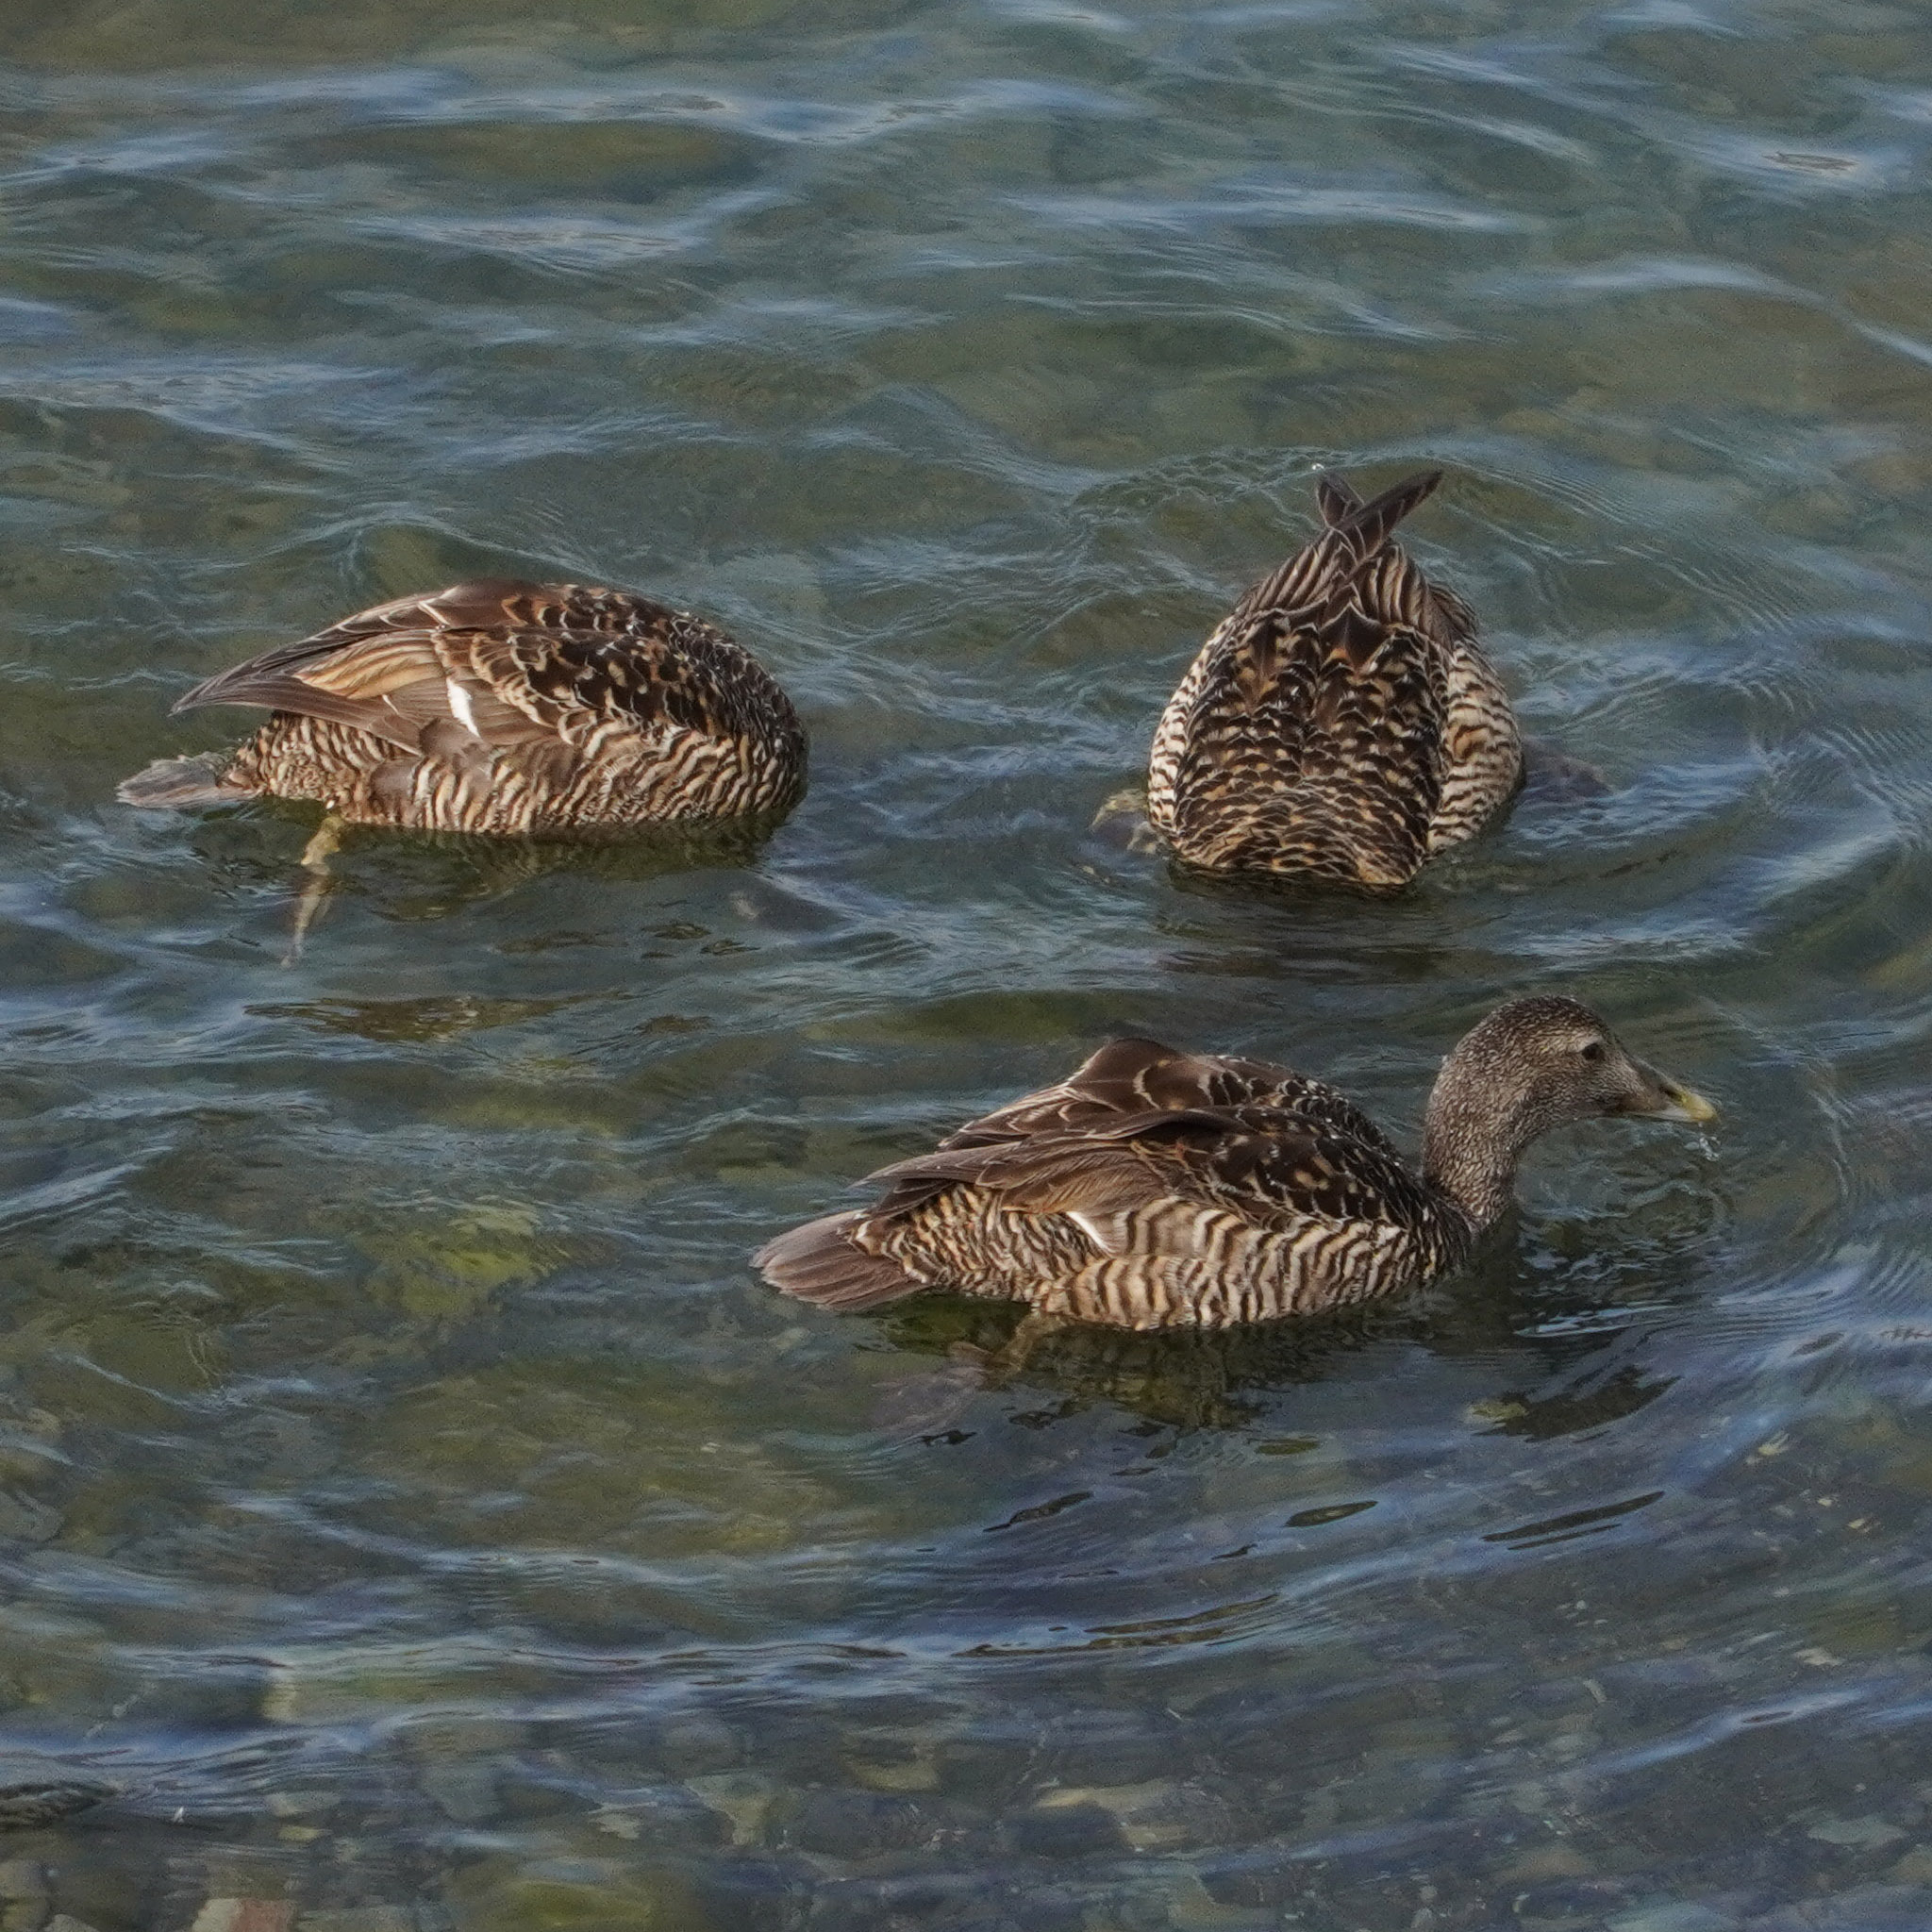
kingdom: Animalia
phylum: Chordata
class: Aves
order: Anseriformes
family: Anatidae
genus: Somateria
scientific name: Somateria mollissima
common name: Common eider
